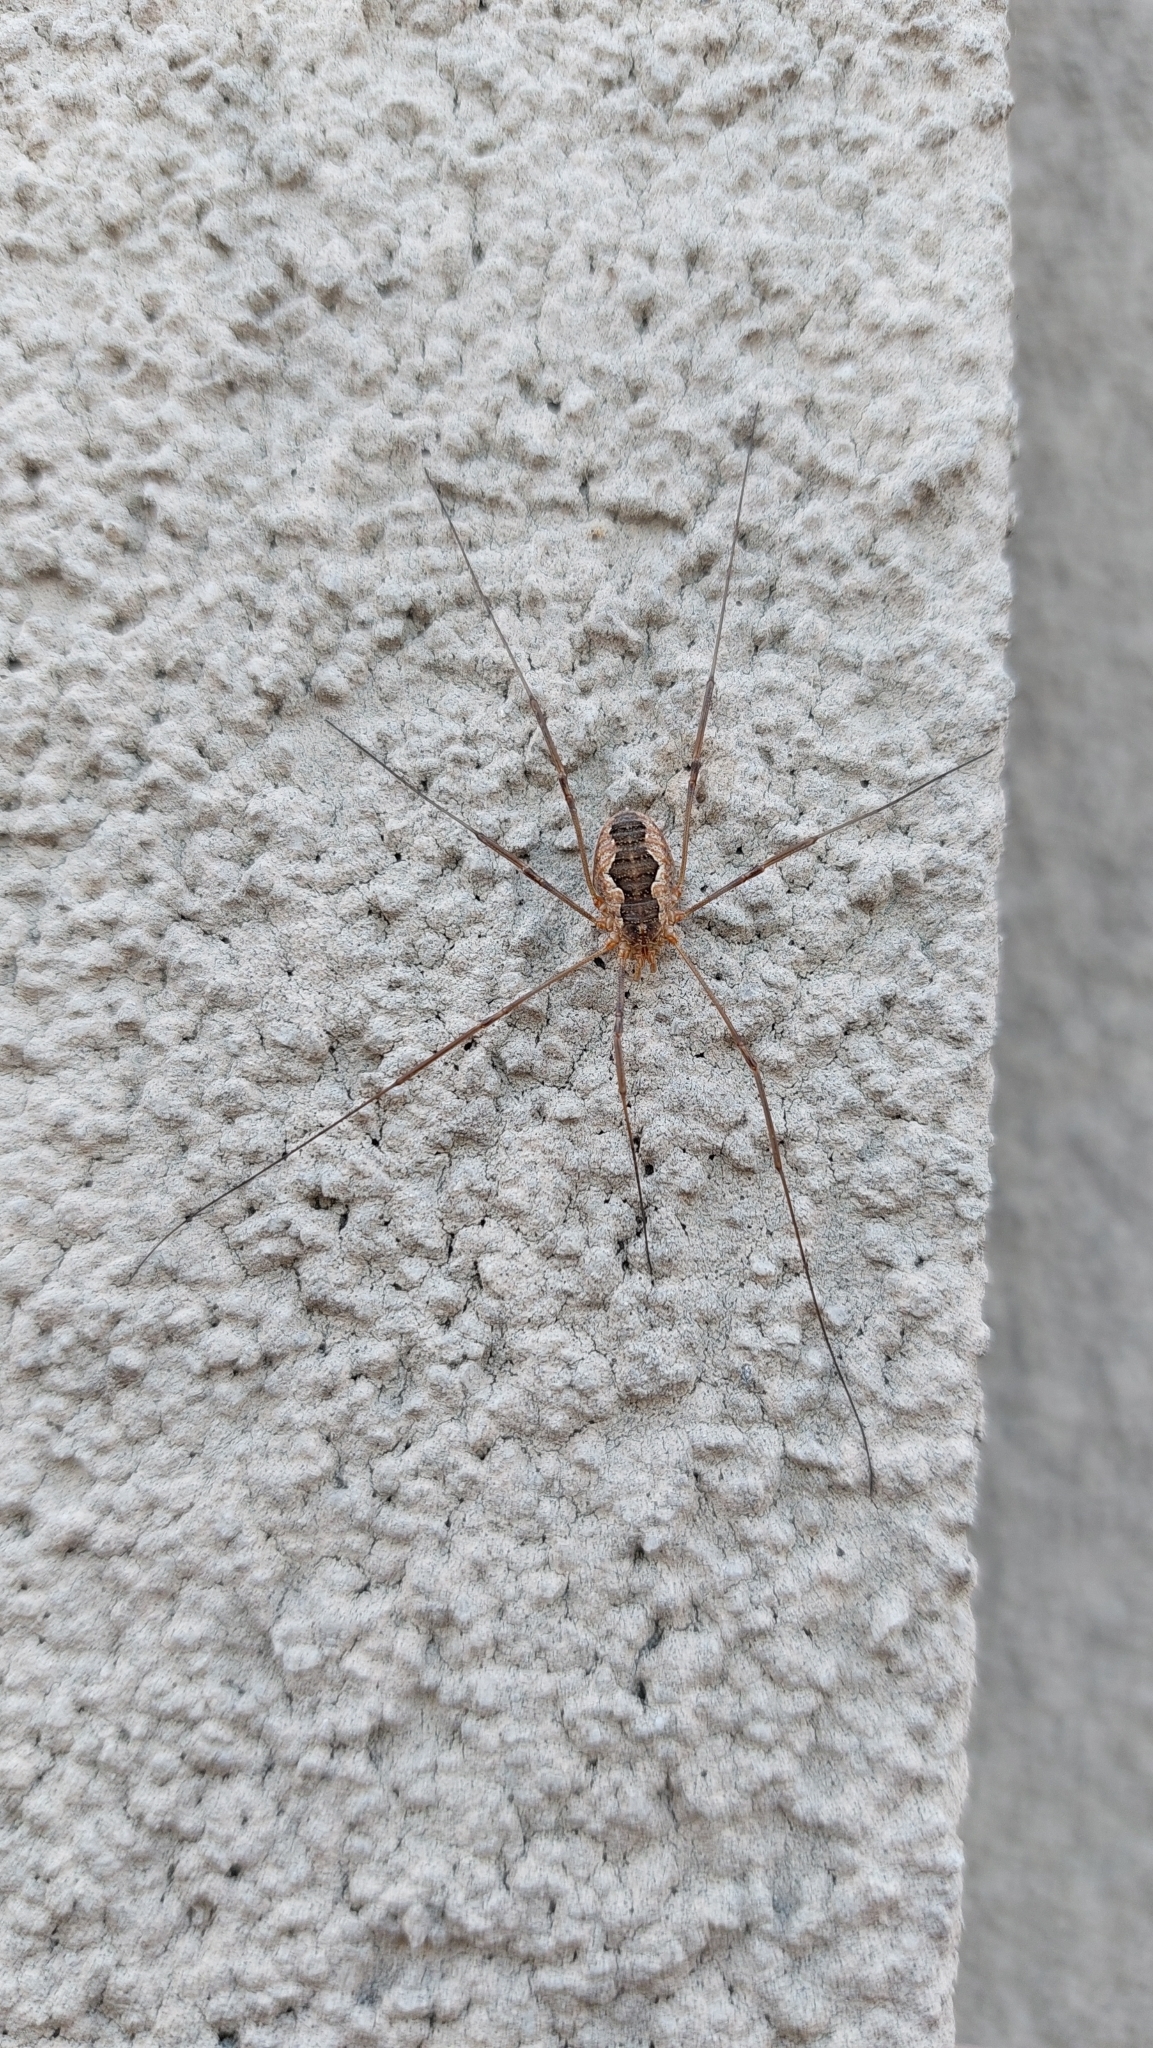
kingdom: Animalia
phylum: Arthropoda
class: Arachnida
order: Opiliones
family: Phalangiidae
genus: Phalangium
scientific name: Phalangium opilio
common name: Daddy longleg
